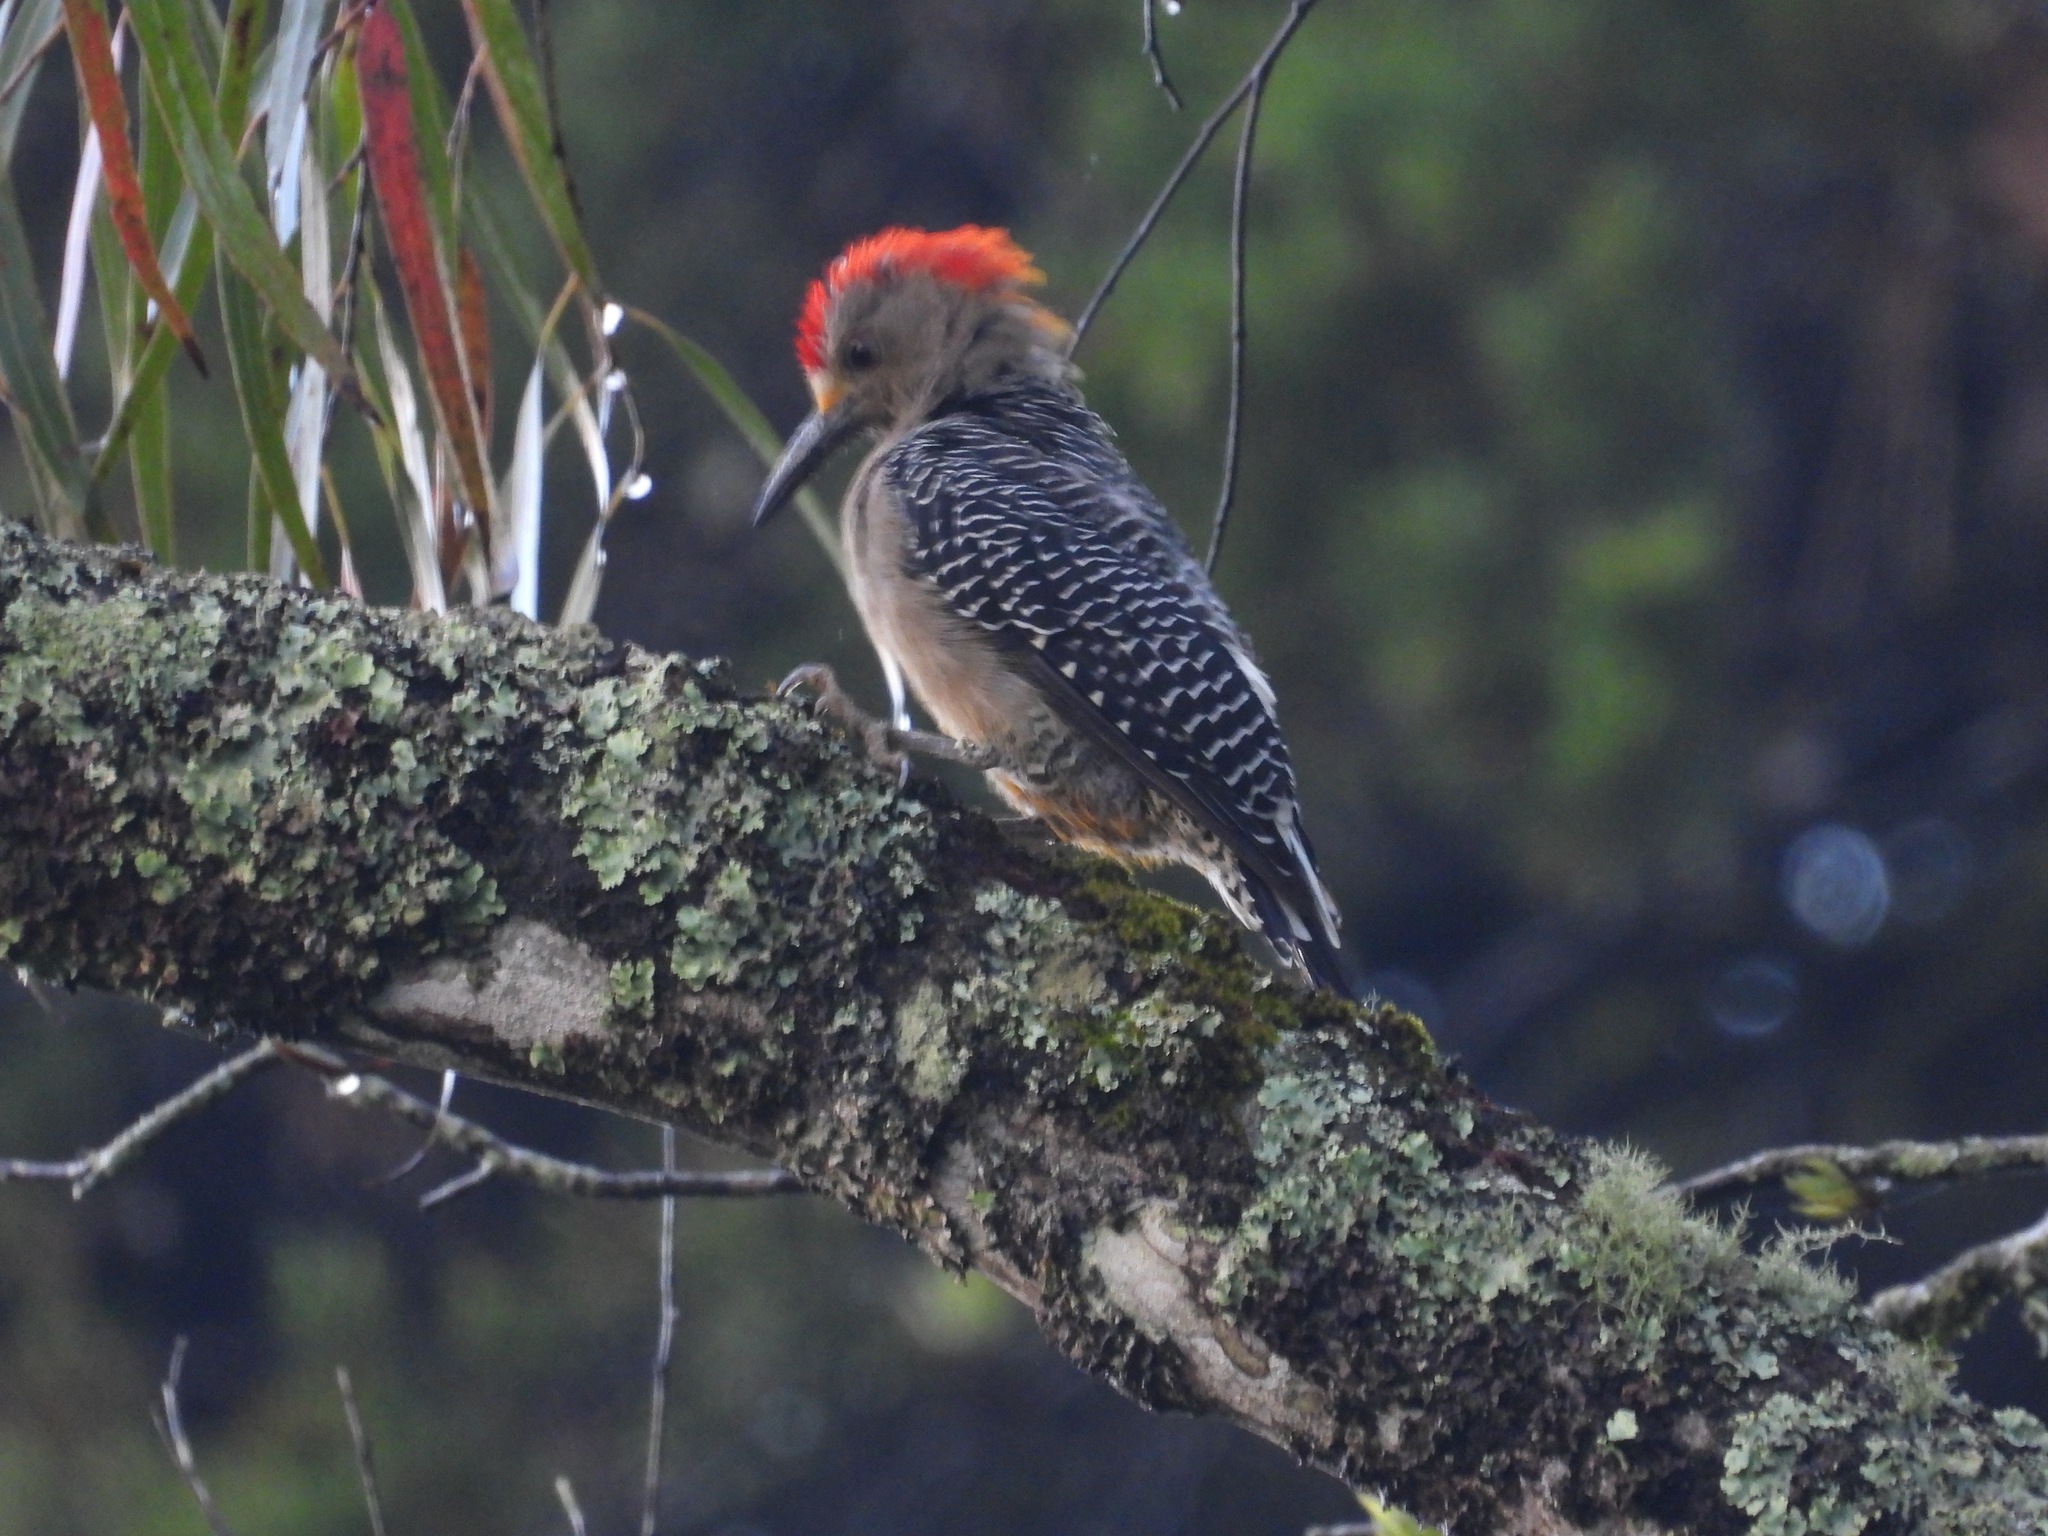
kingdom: Animalia
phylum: Chordata
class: Aves
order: Piciformes
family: Picidae
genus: Melanerpes
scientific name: Melanerpes santacruzi
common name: Velasquez's woodpecker
